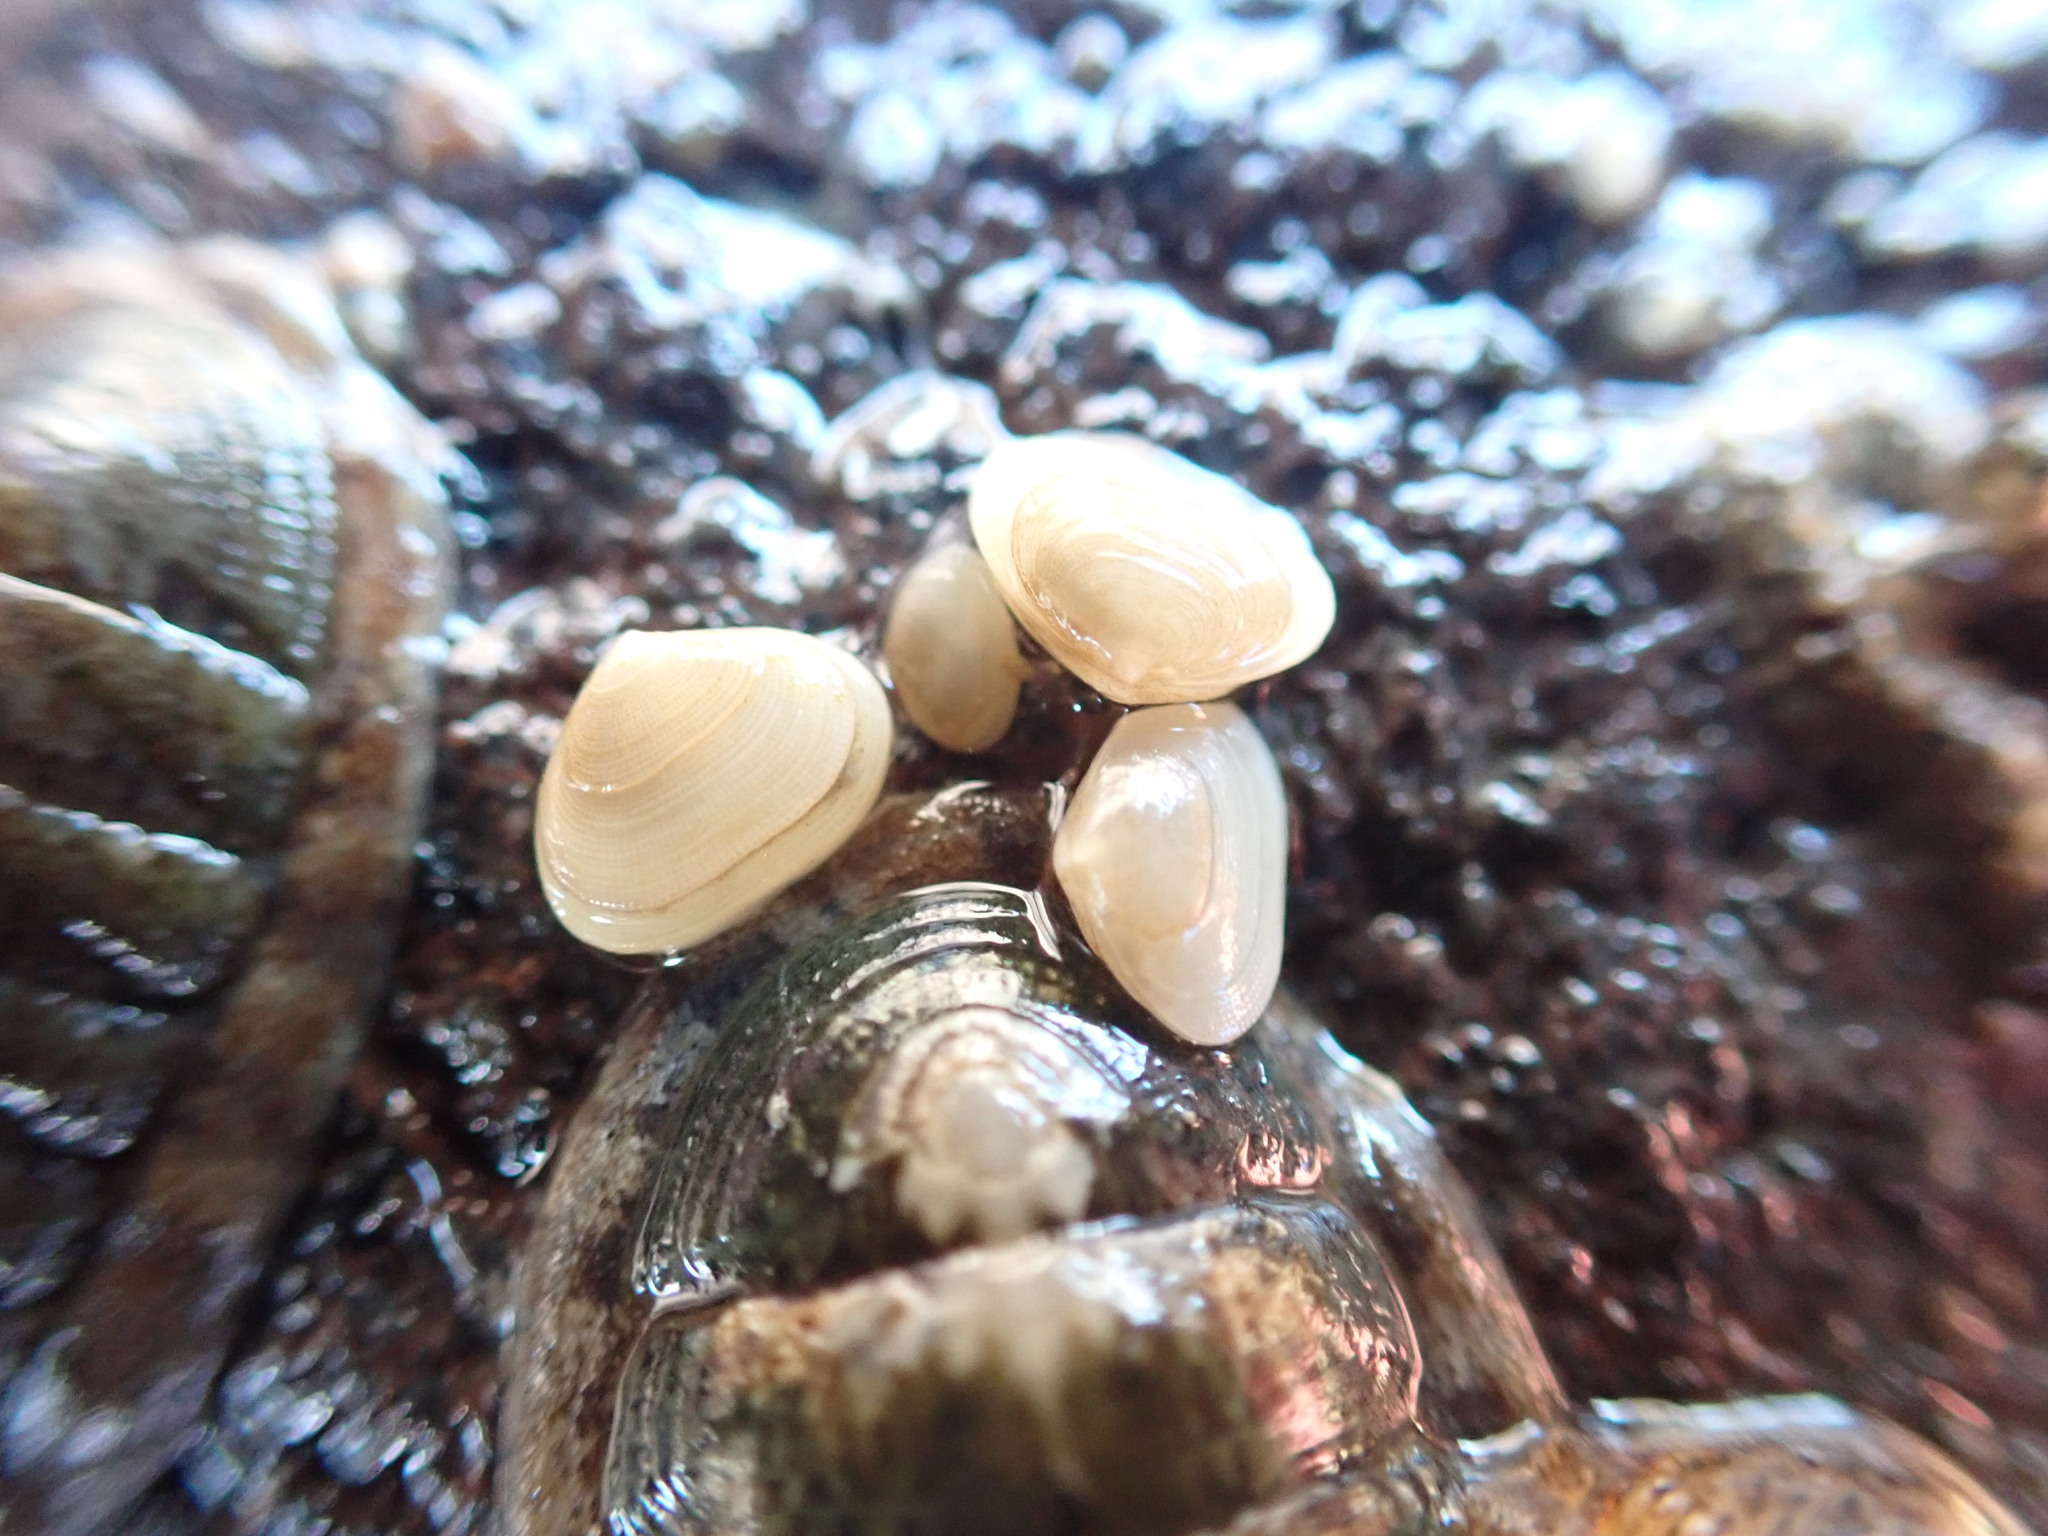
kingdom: Animalia
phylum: Mollusca
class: Bivalvia
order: Galeommatida
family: Lasaeidae
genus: Borniola
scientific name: Borniola reniformis
